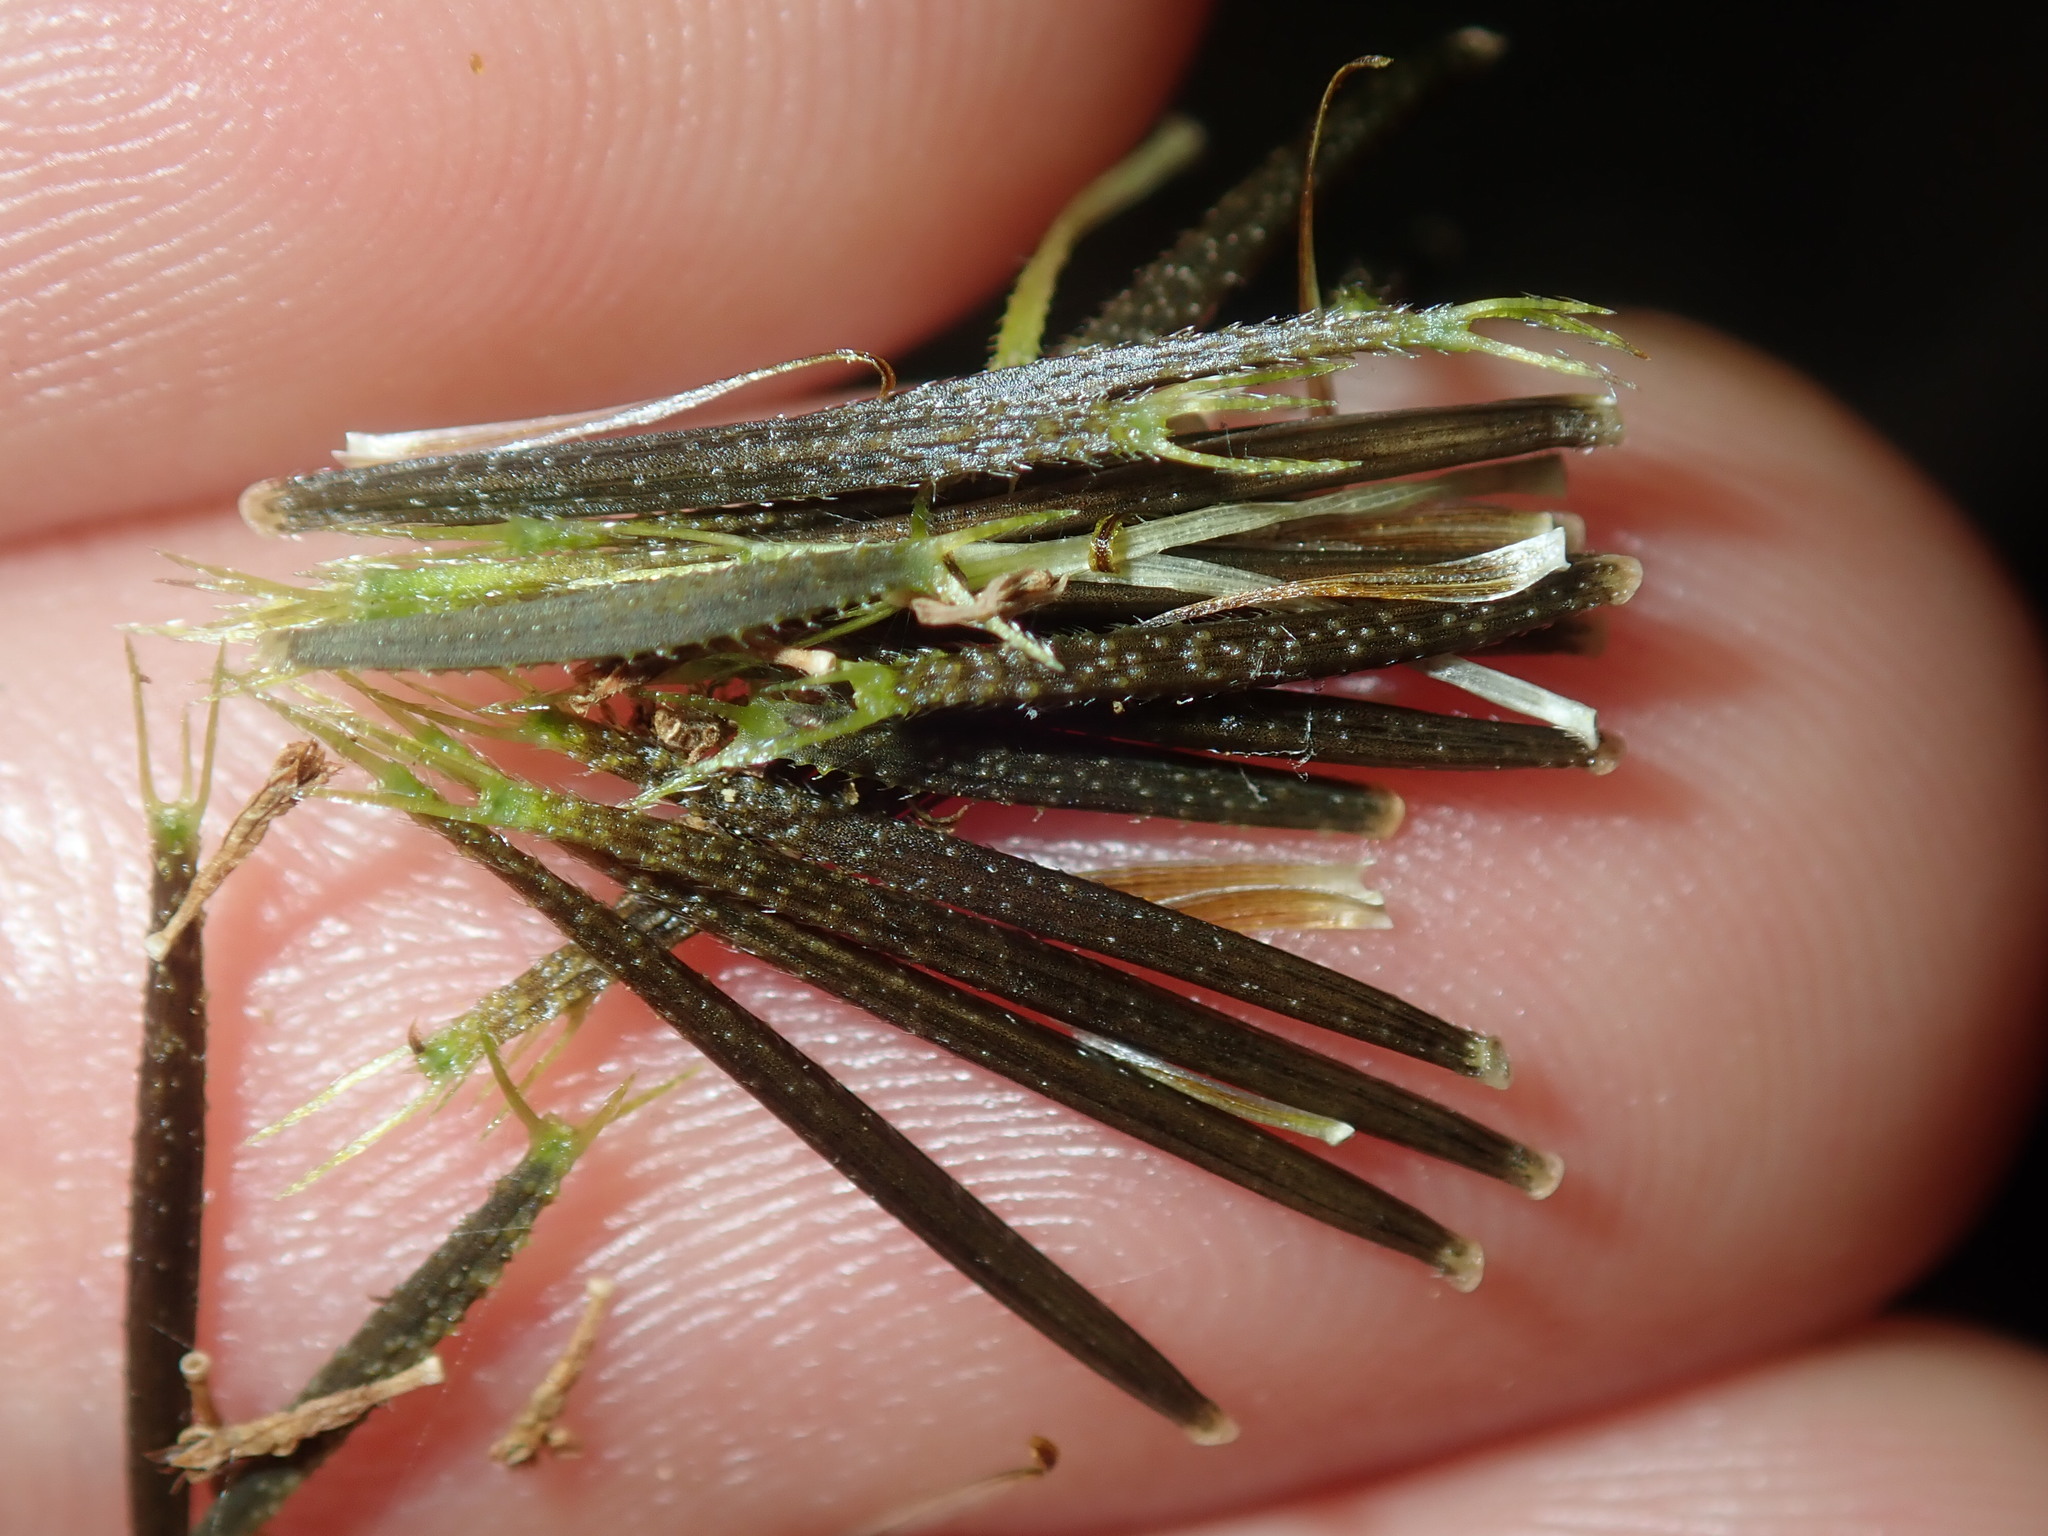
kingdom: Plantae
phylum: Tracheophyta
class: Magnoliopsida
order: Asterales
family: Asteraceae
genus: Bidens
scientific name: Bidens pilosa
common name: Black-jack
